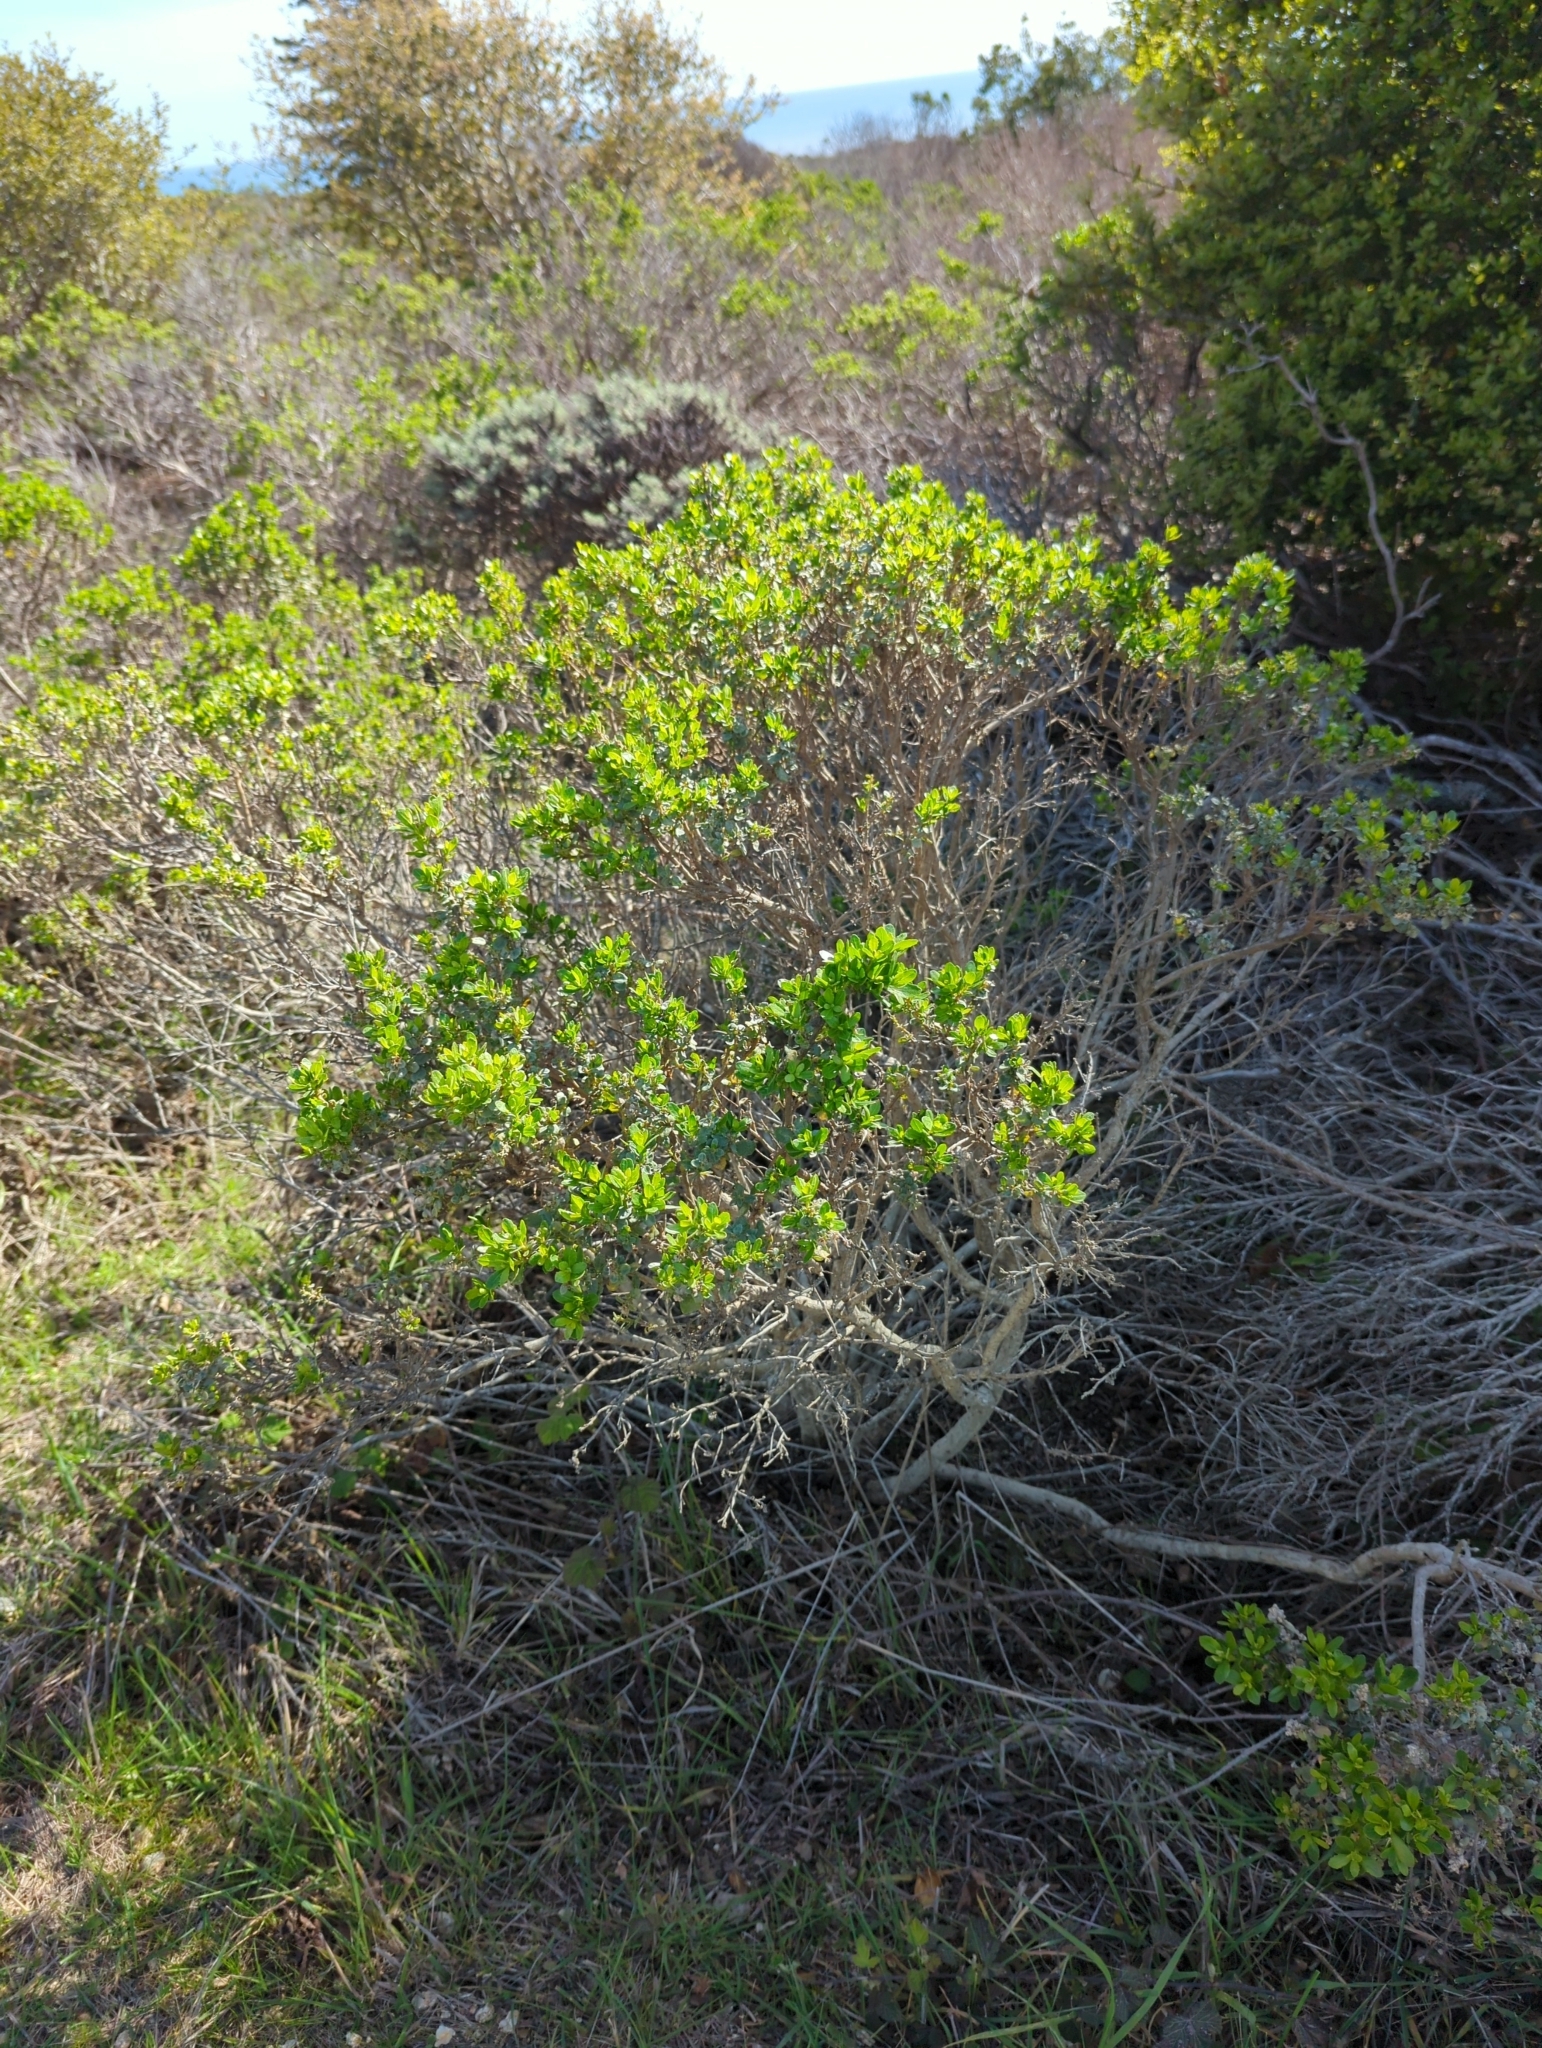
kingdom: Plantae
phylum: Tracheophyta
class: Magnoliopsida
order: Asterales
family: Asteraceae
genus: Baccharis
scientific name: Baccharis pilularis
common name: Coyotebrush
